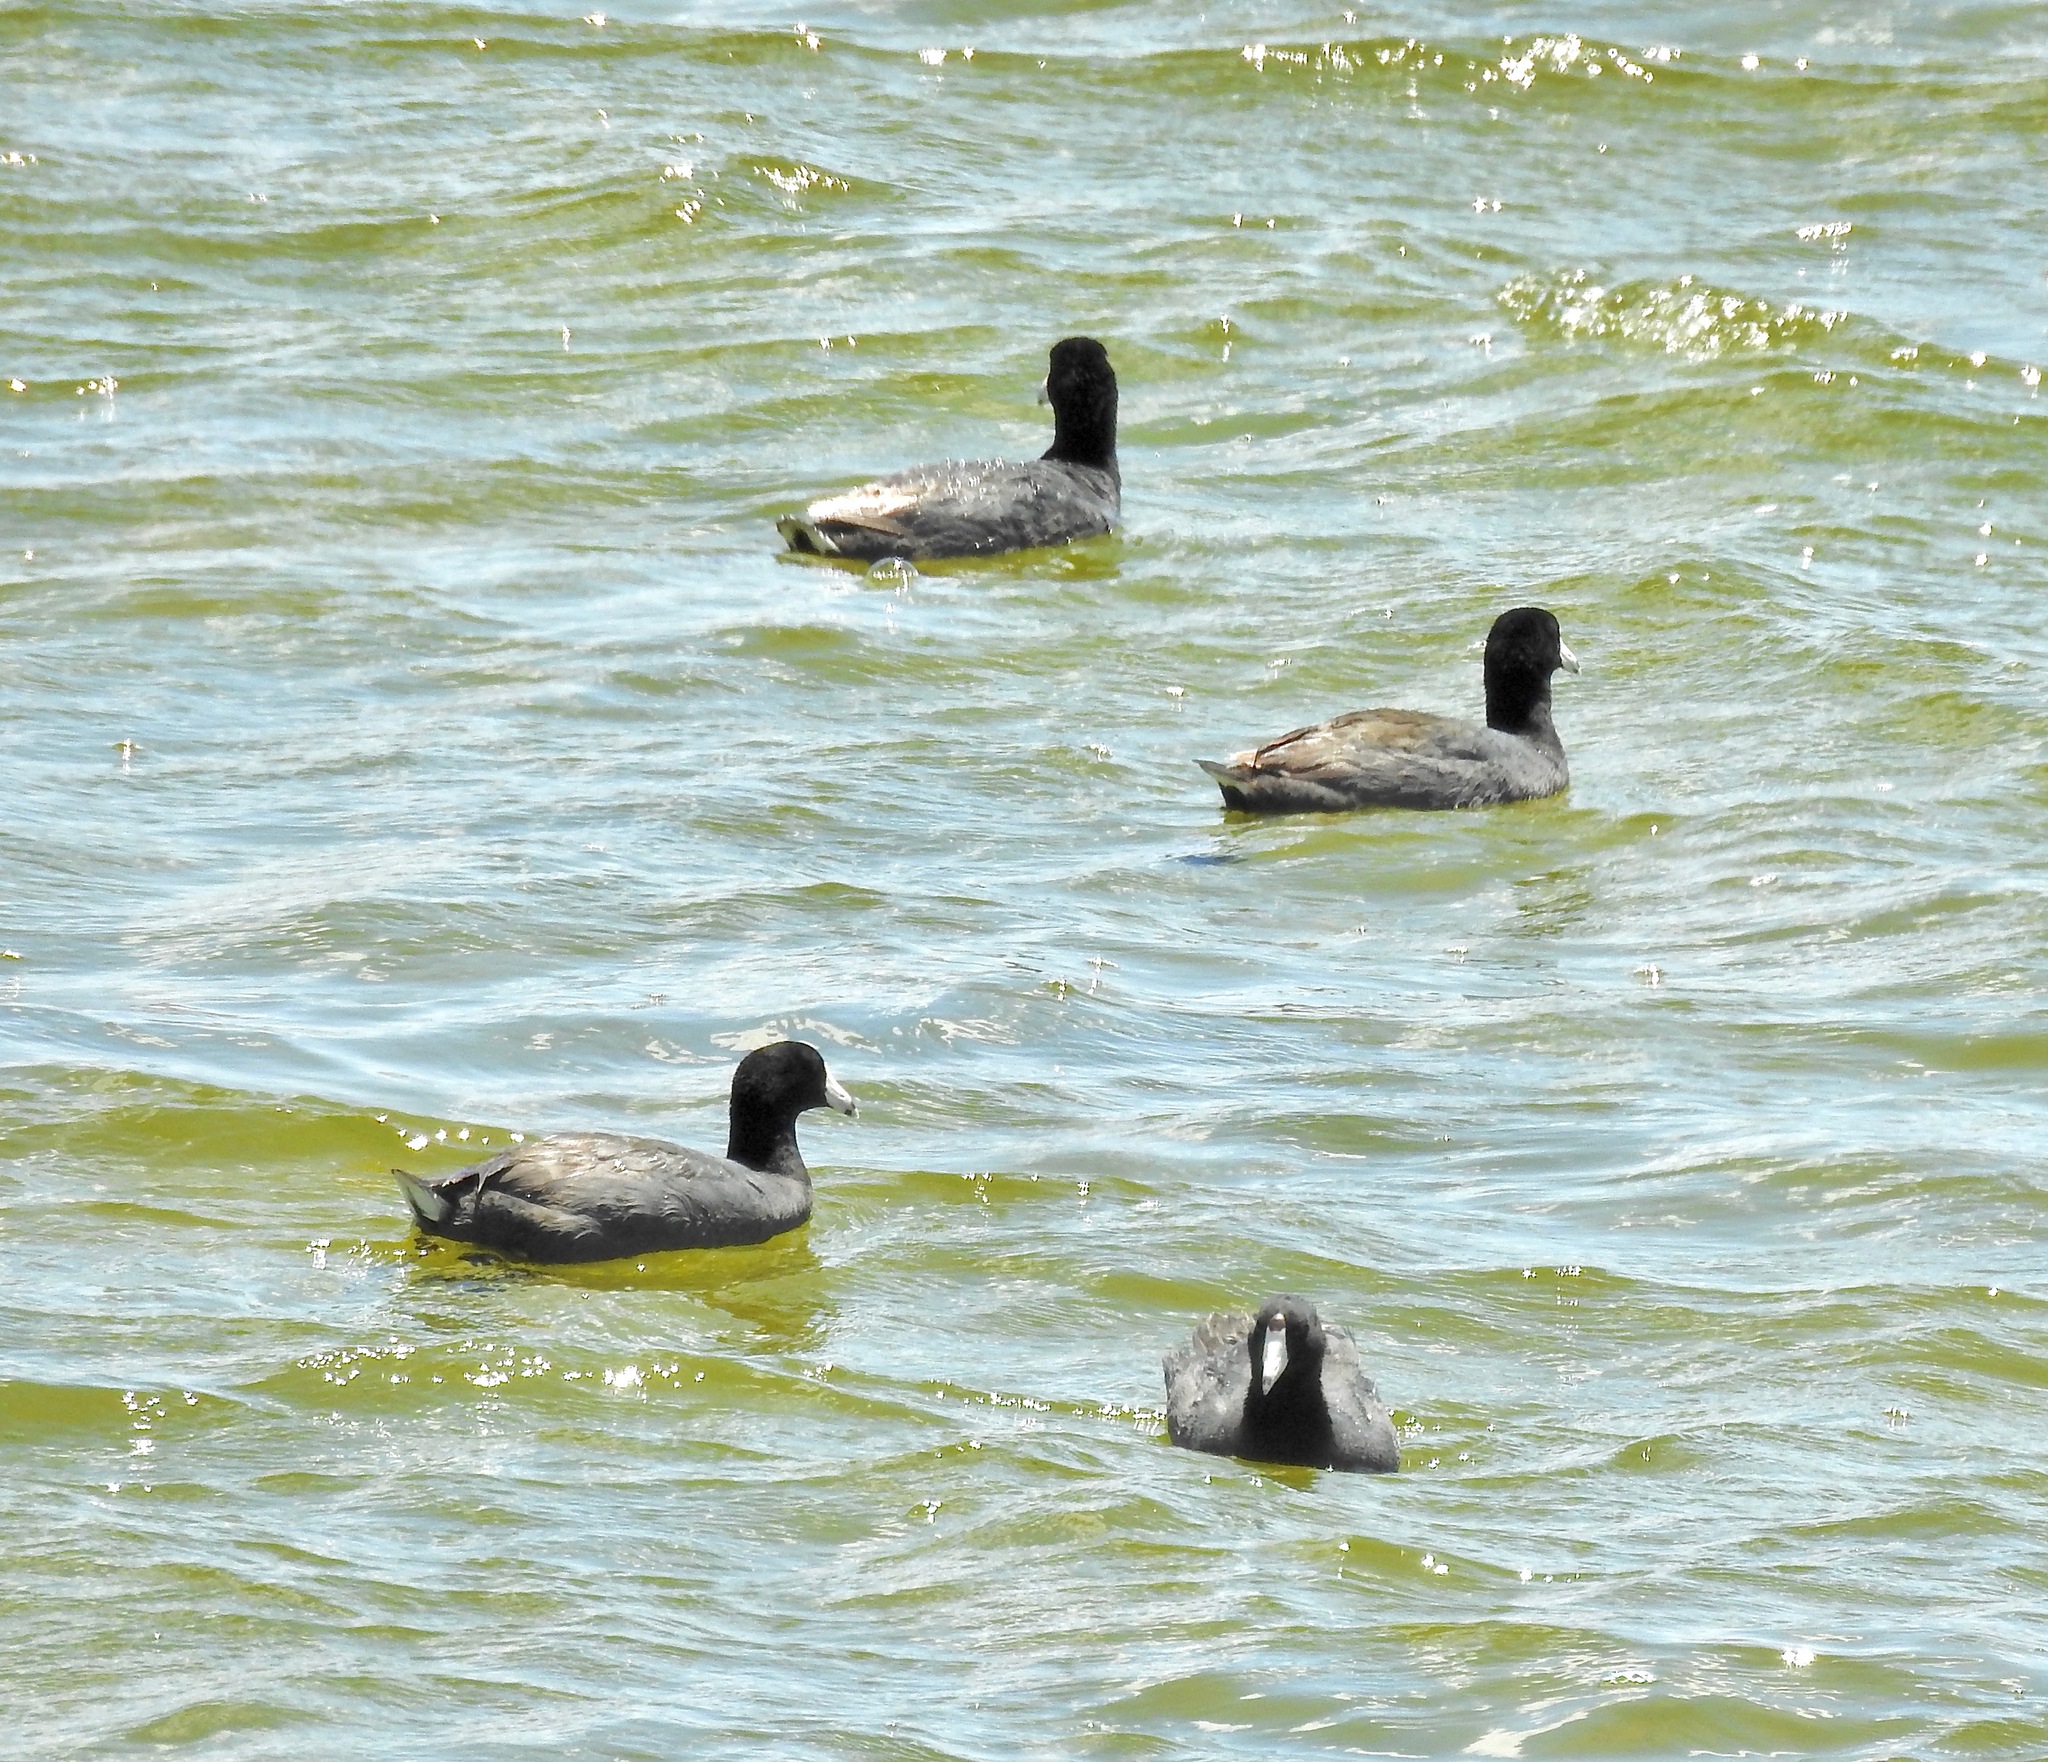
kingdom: Animalia
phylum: Chordata
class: Aves
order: Gruiformes
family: Rallidae
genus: Fulica
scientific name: Fulica americana
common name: American coot
